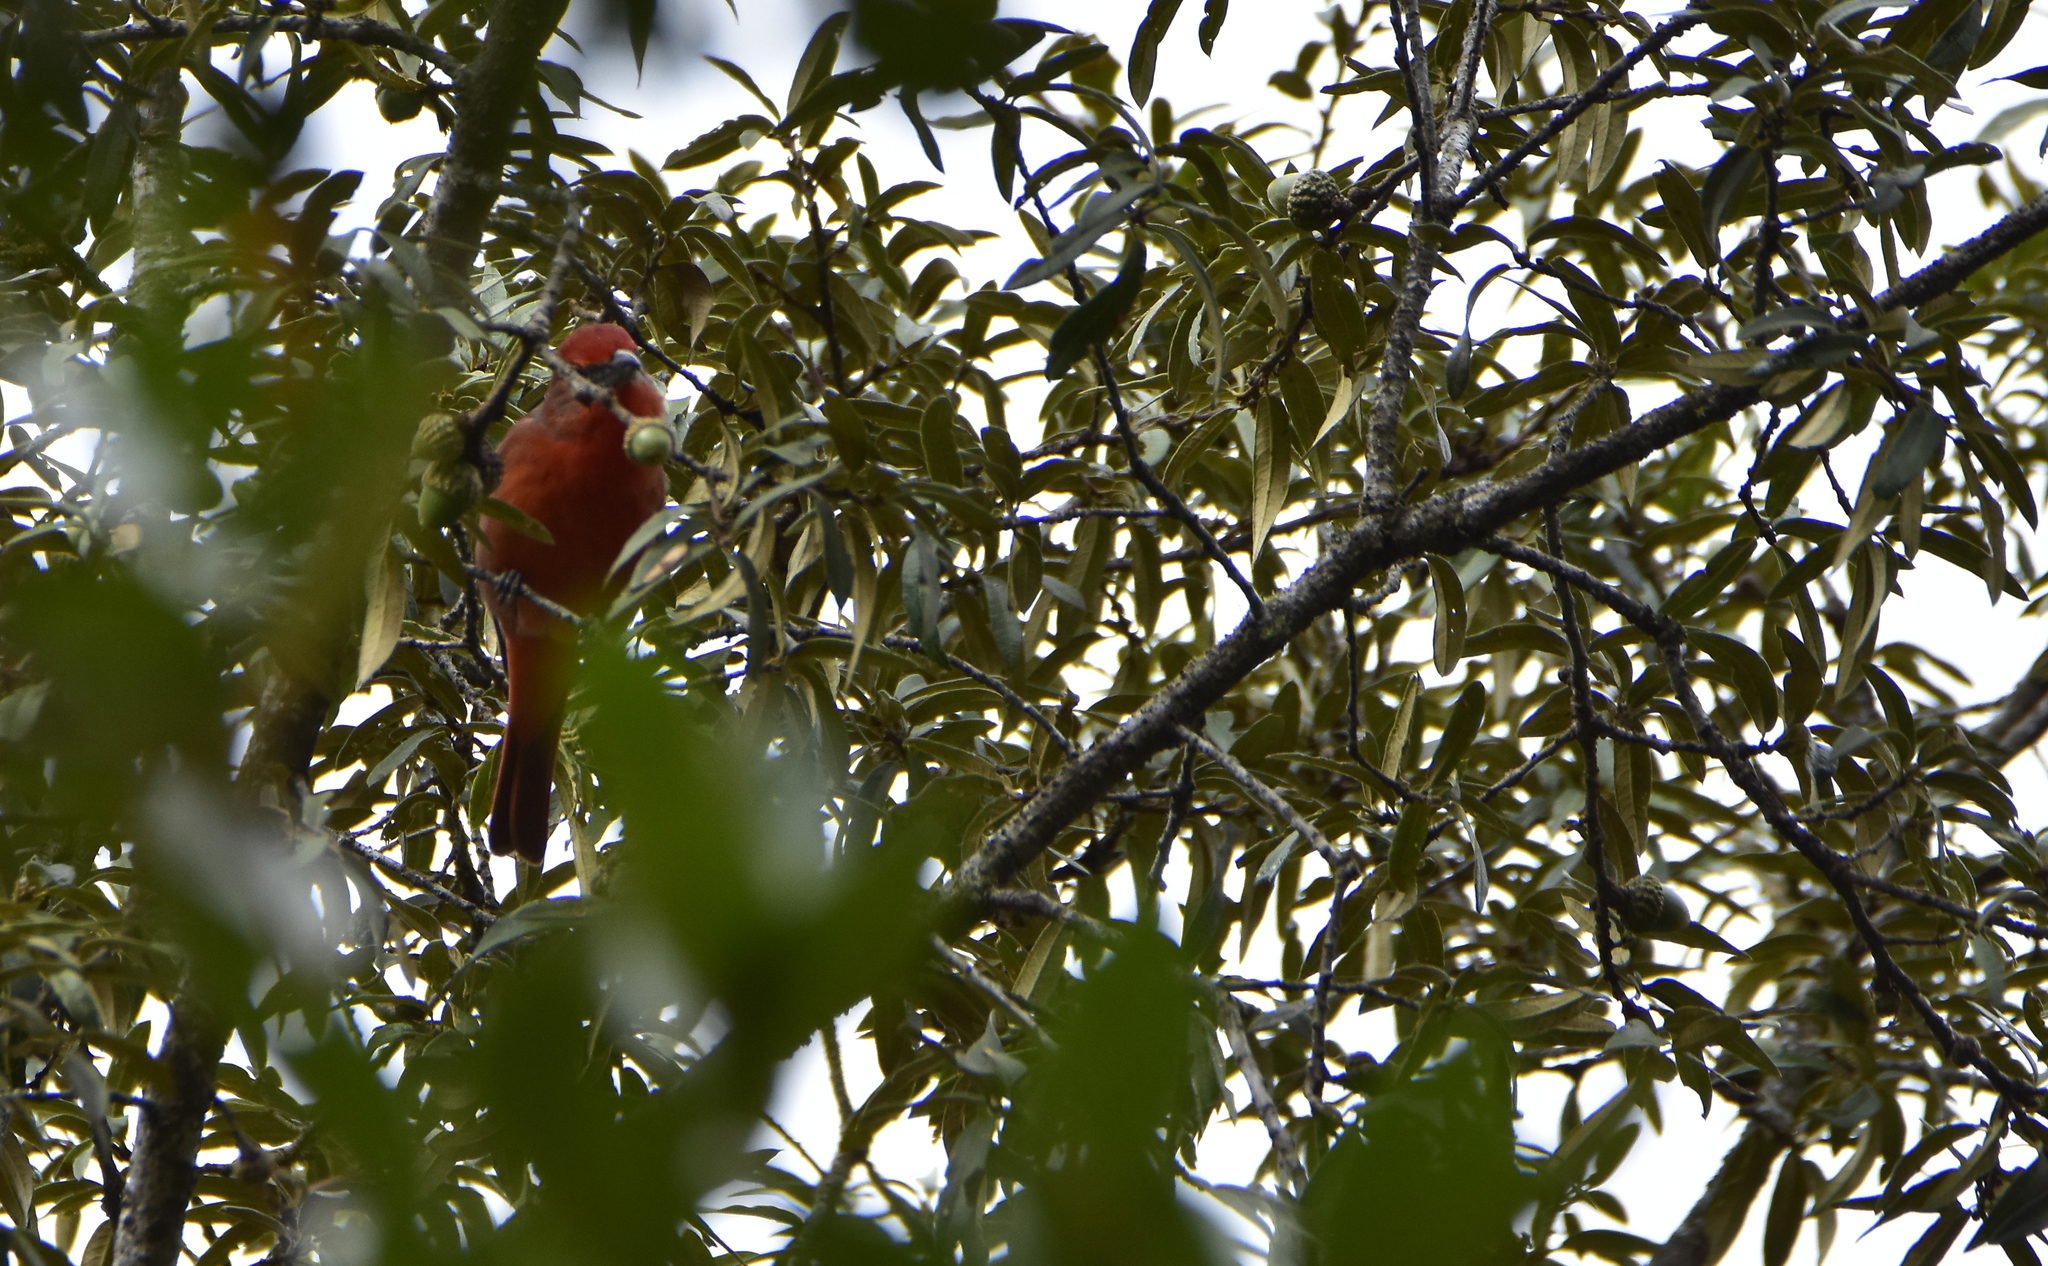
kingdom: Animalia
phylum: Chordata
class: Aves
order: Passeriformes
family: Cardinalidae
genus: Piranga
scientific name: Piranga flava
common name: Red tanager
